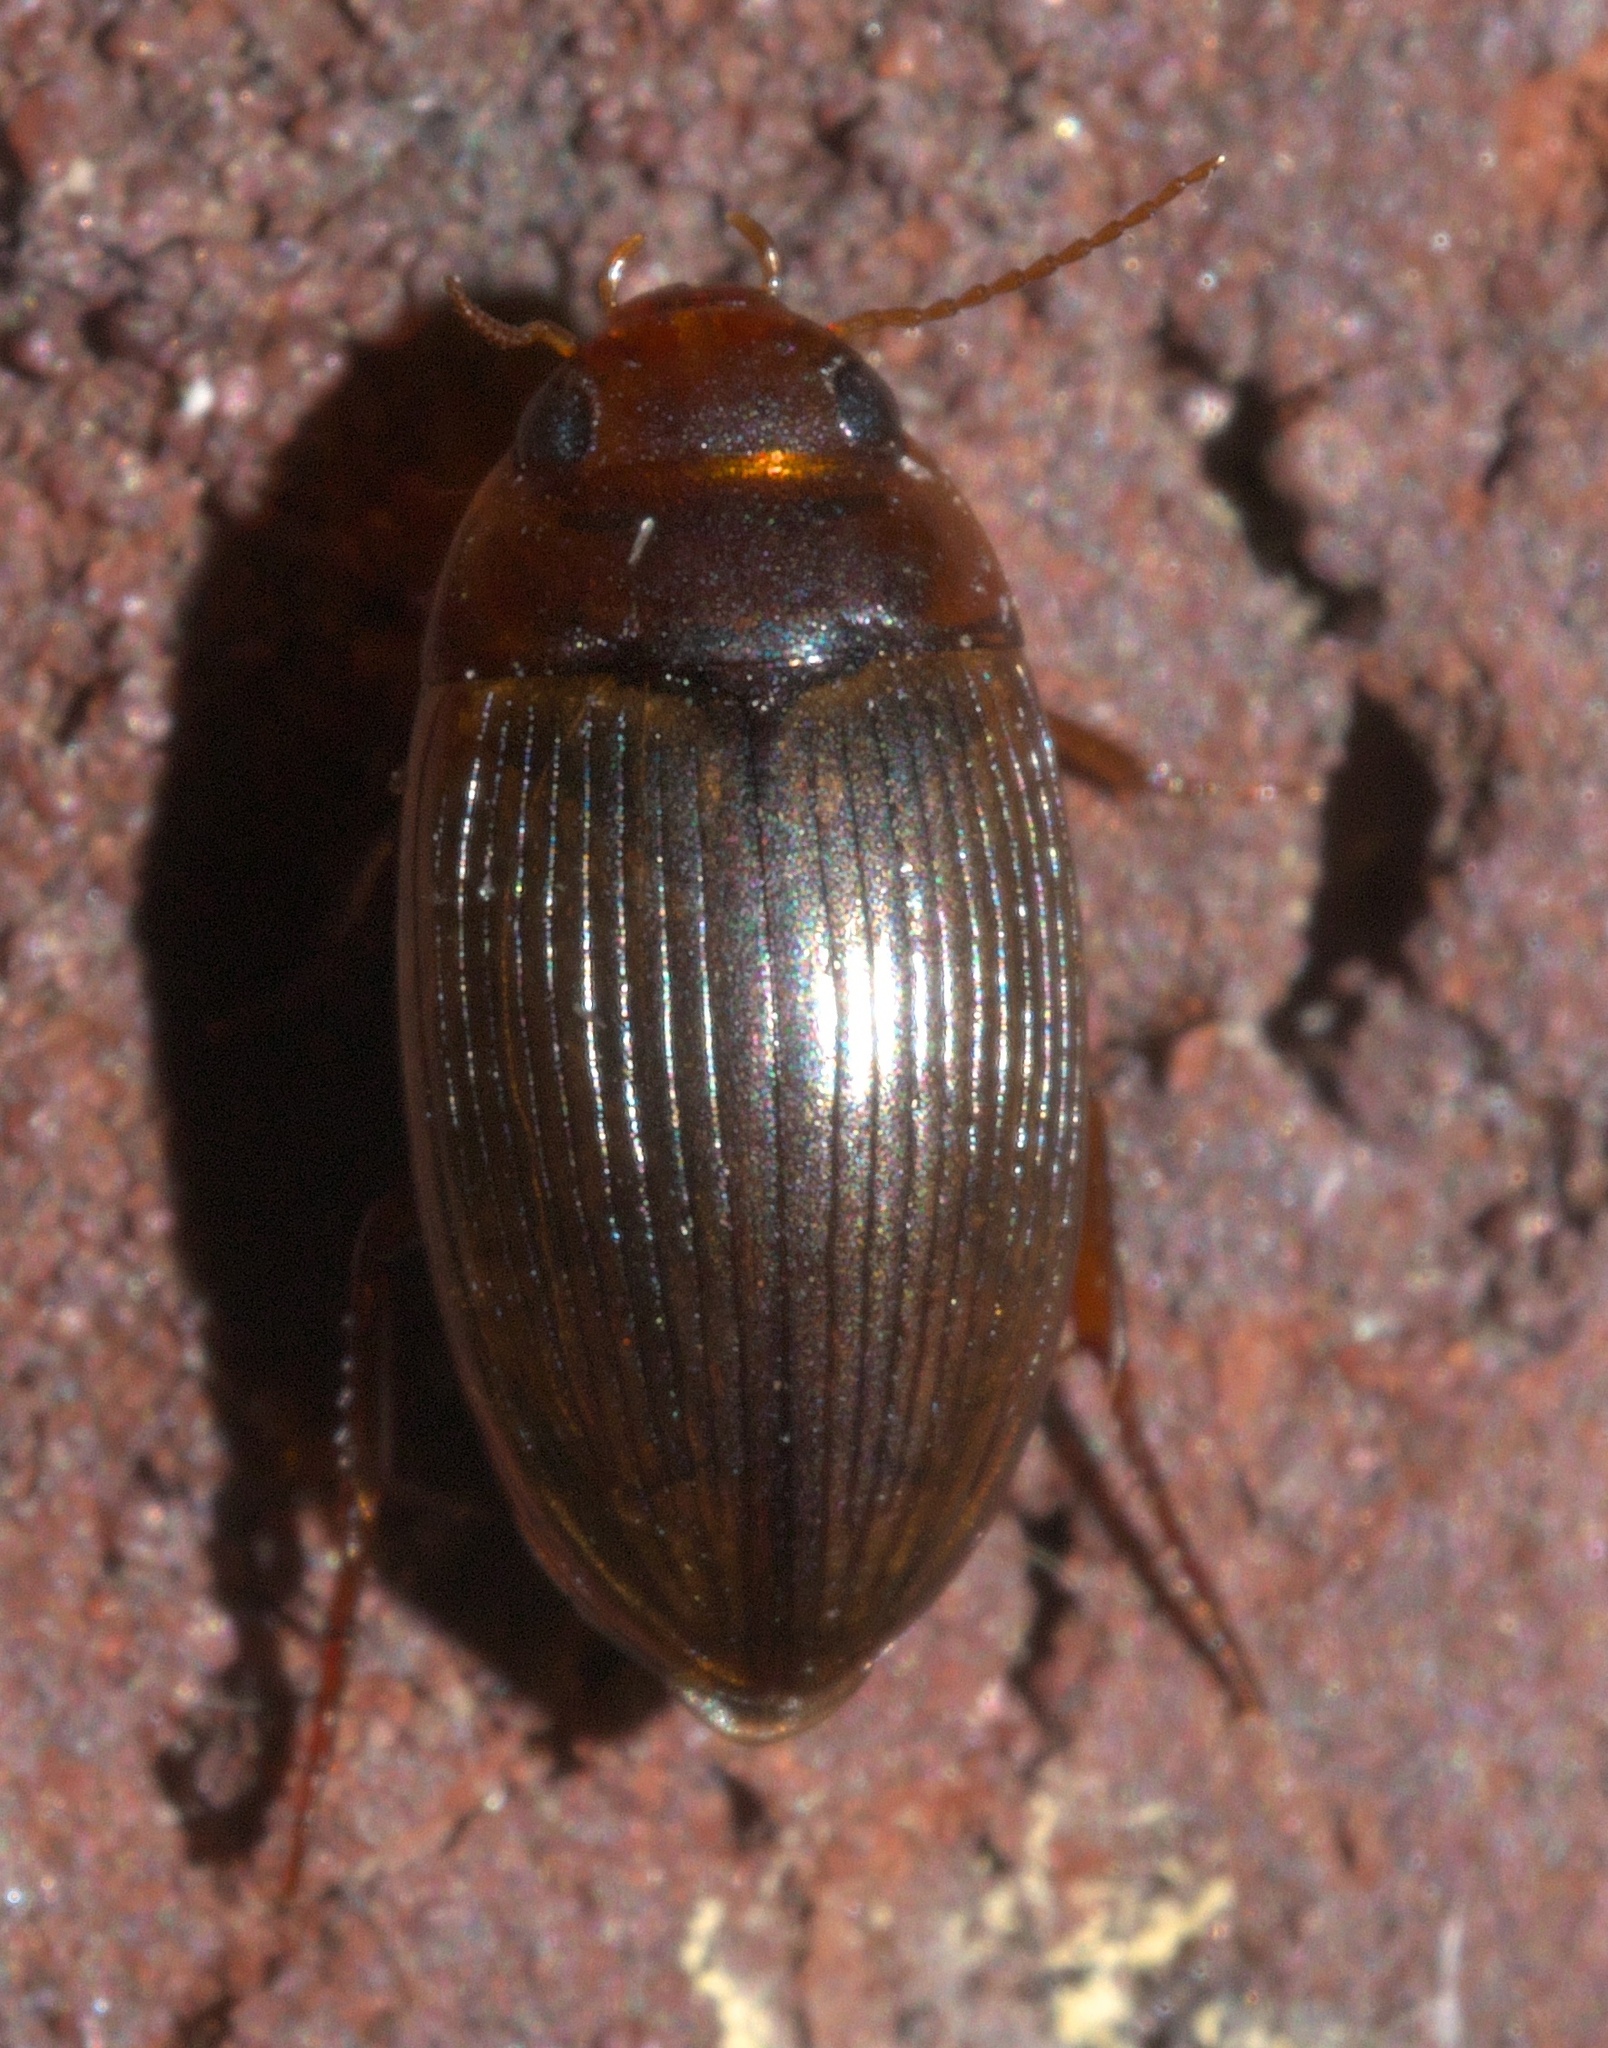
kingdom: Animalia
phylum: Arthropoda
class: Insecta
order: Coleoptera
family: Dytiscidae
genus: Copelatus
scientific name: Copelatus glyphicus
